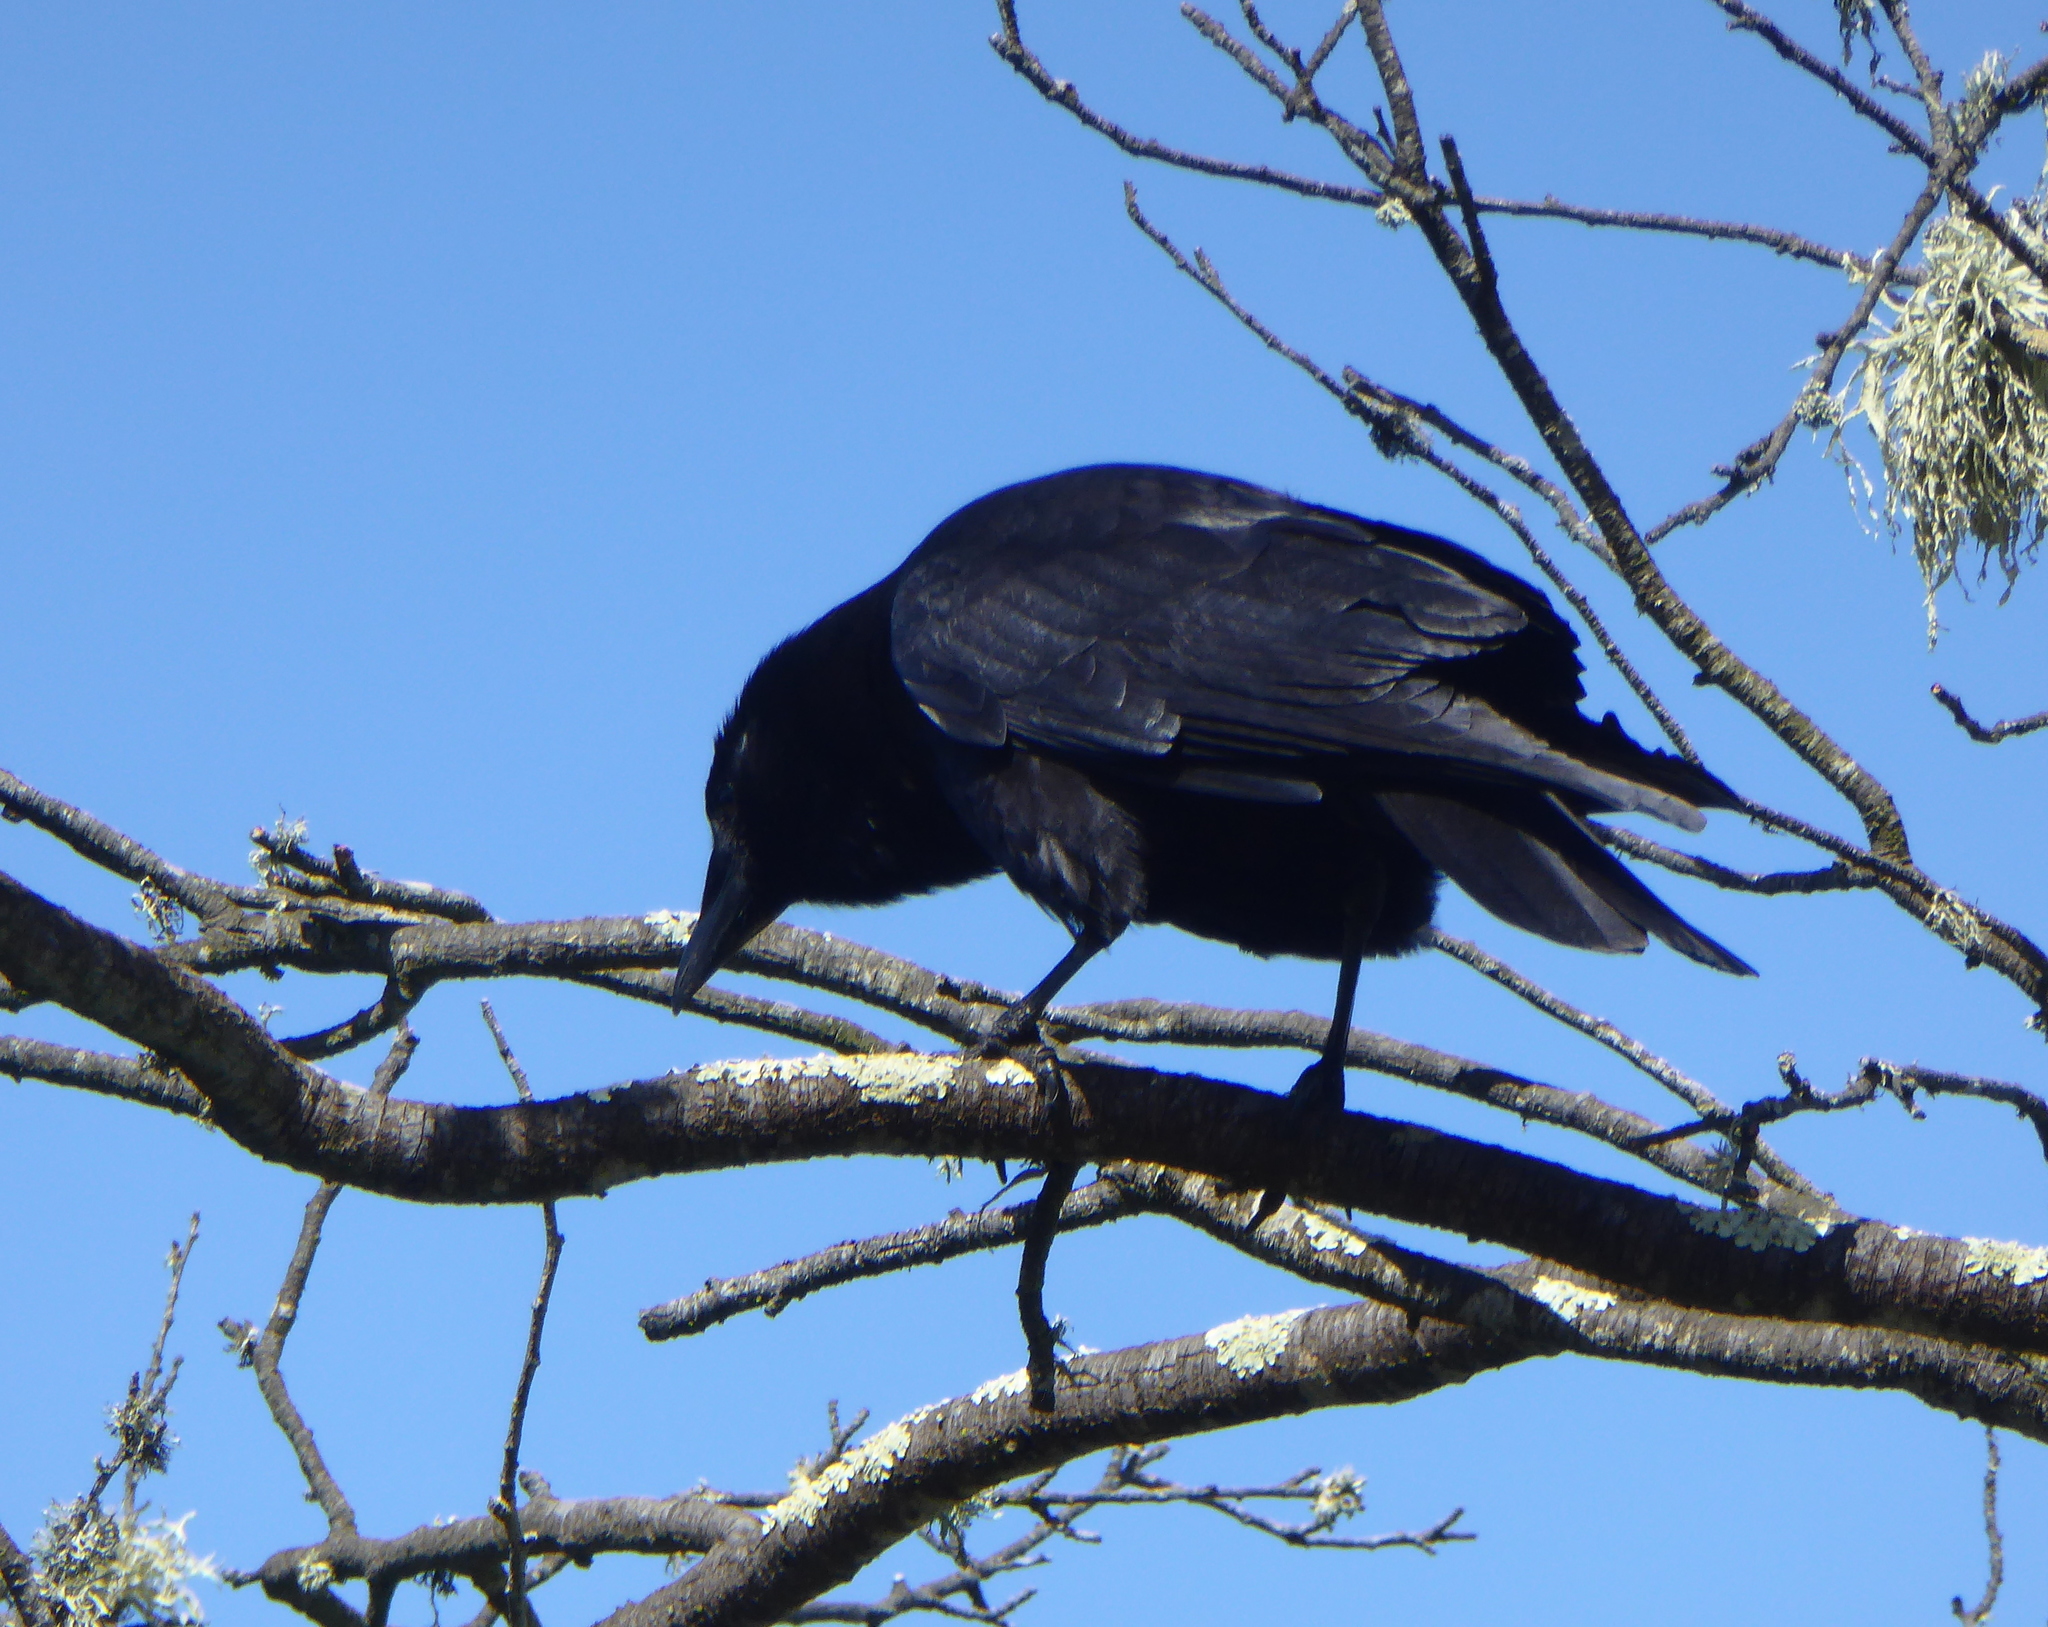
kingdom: Animalia
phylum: Chordata
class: Aves
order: Passeriformes
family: Corvidae
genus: Corvus
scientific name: Corvus brachyrhynchos
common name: American crow
